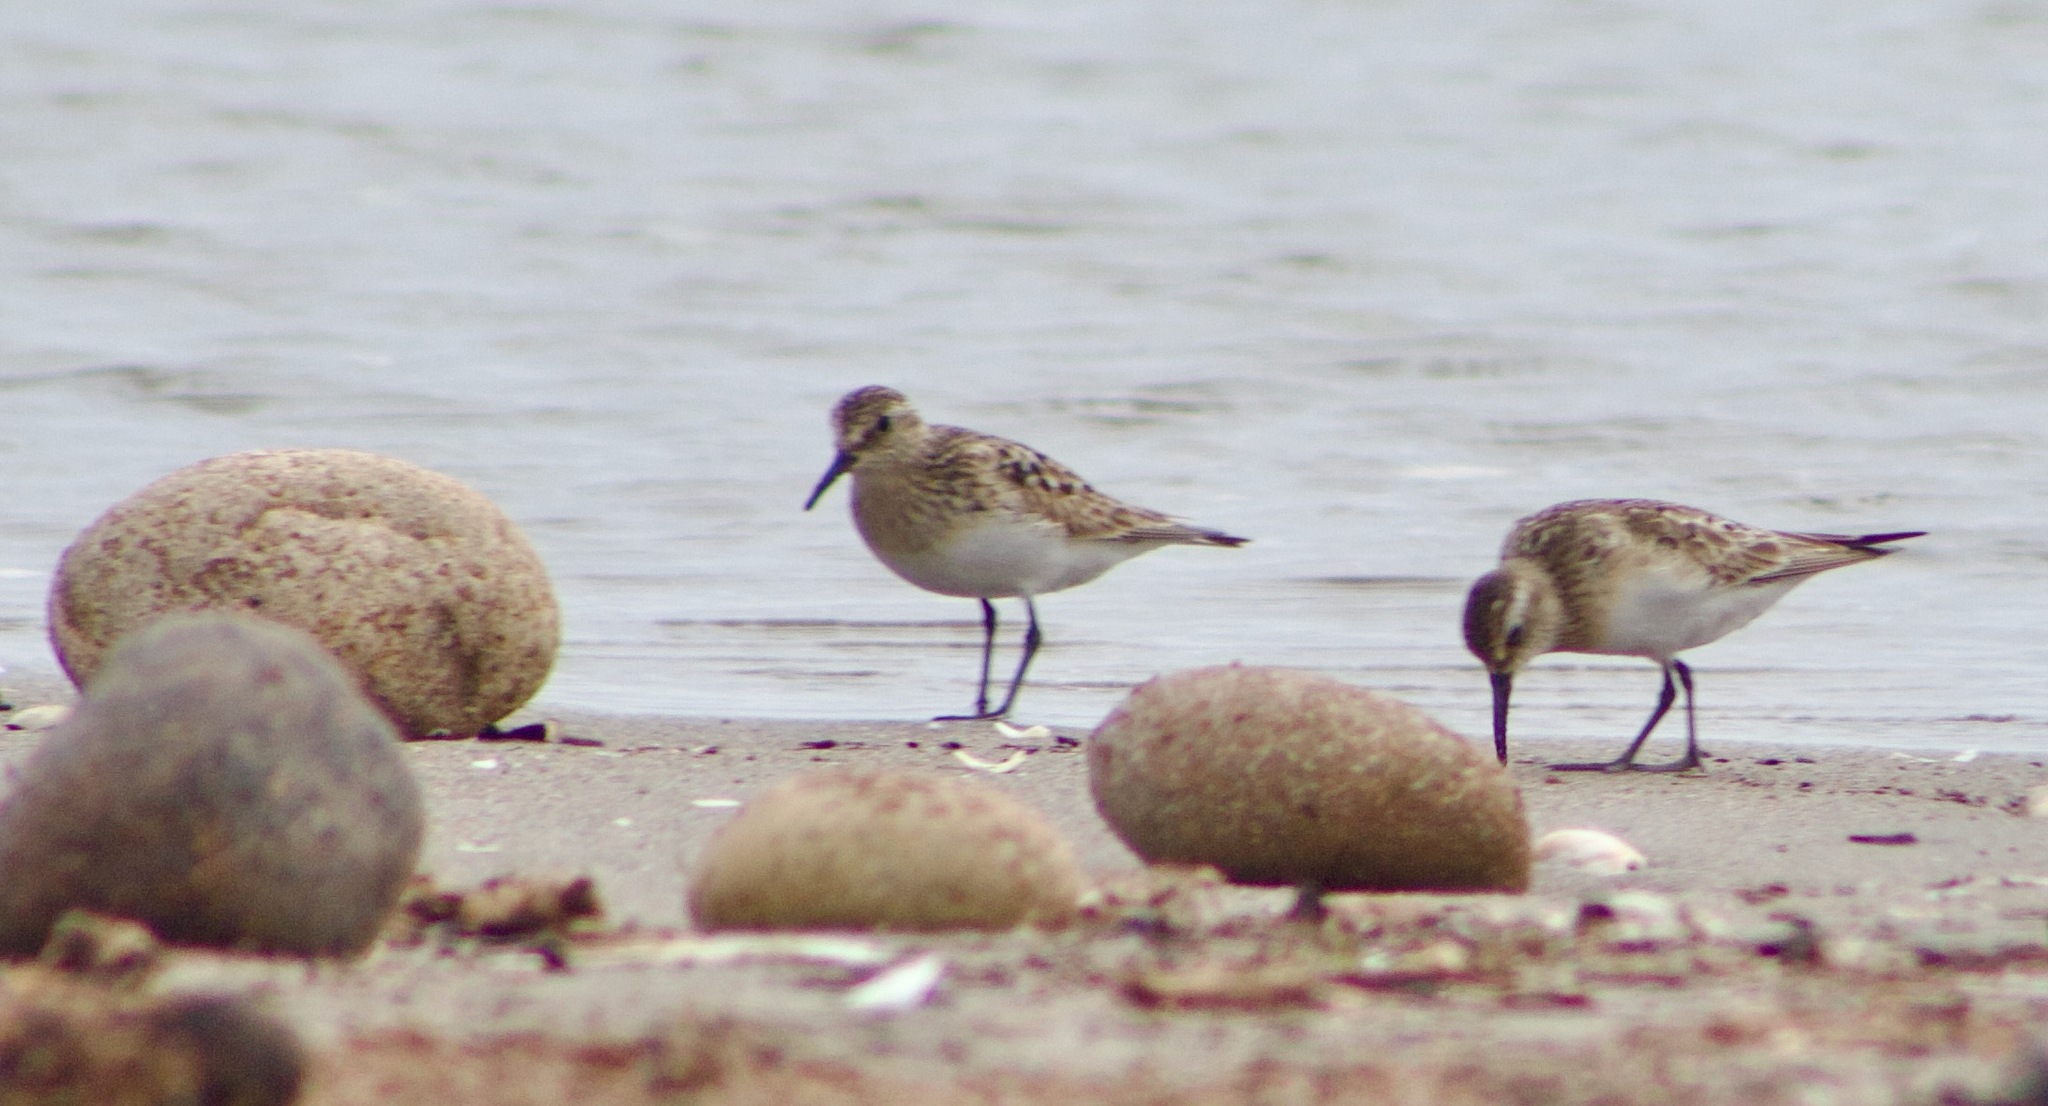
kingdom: Animalia
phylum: Chordata
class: Aves
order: Charadriiformes
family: Scolopacidae
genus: Calidris
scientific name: Calidris bairdii
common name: Baird's sandpiper
